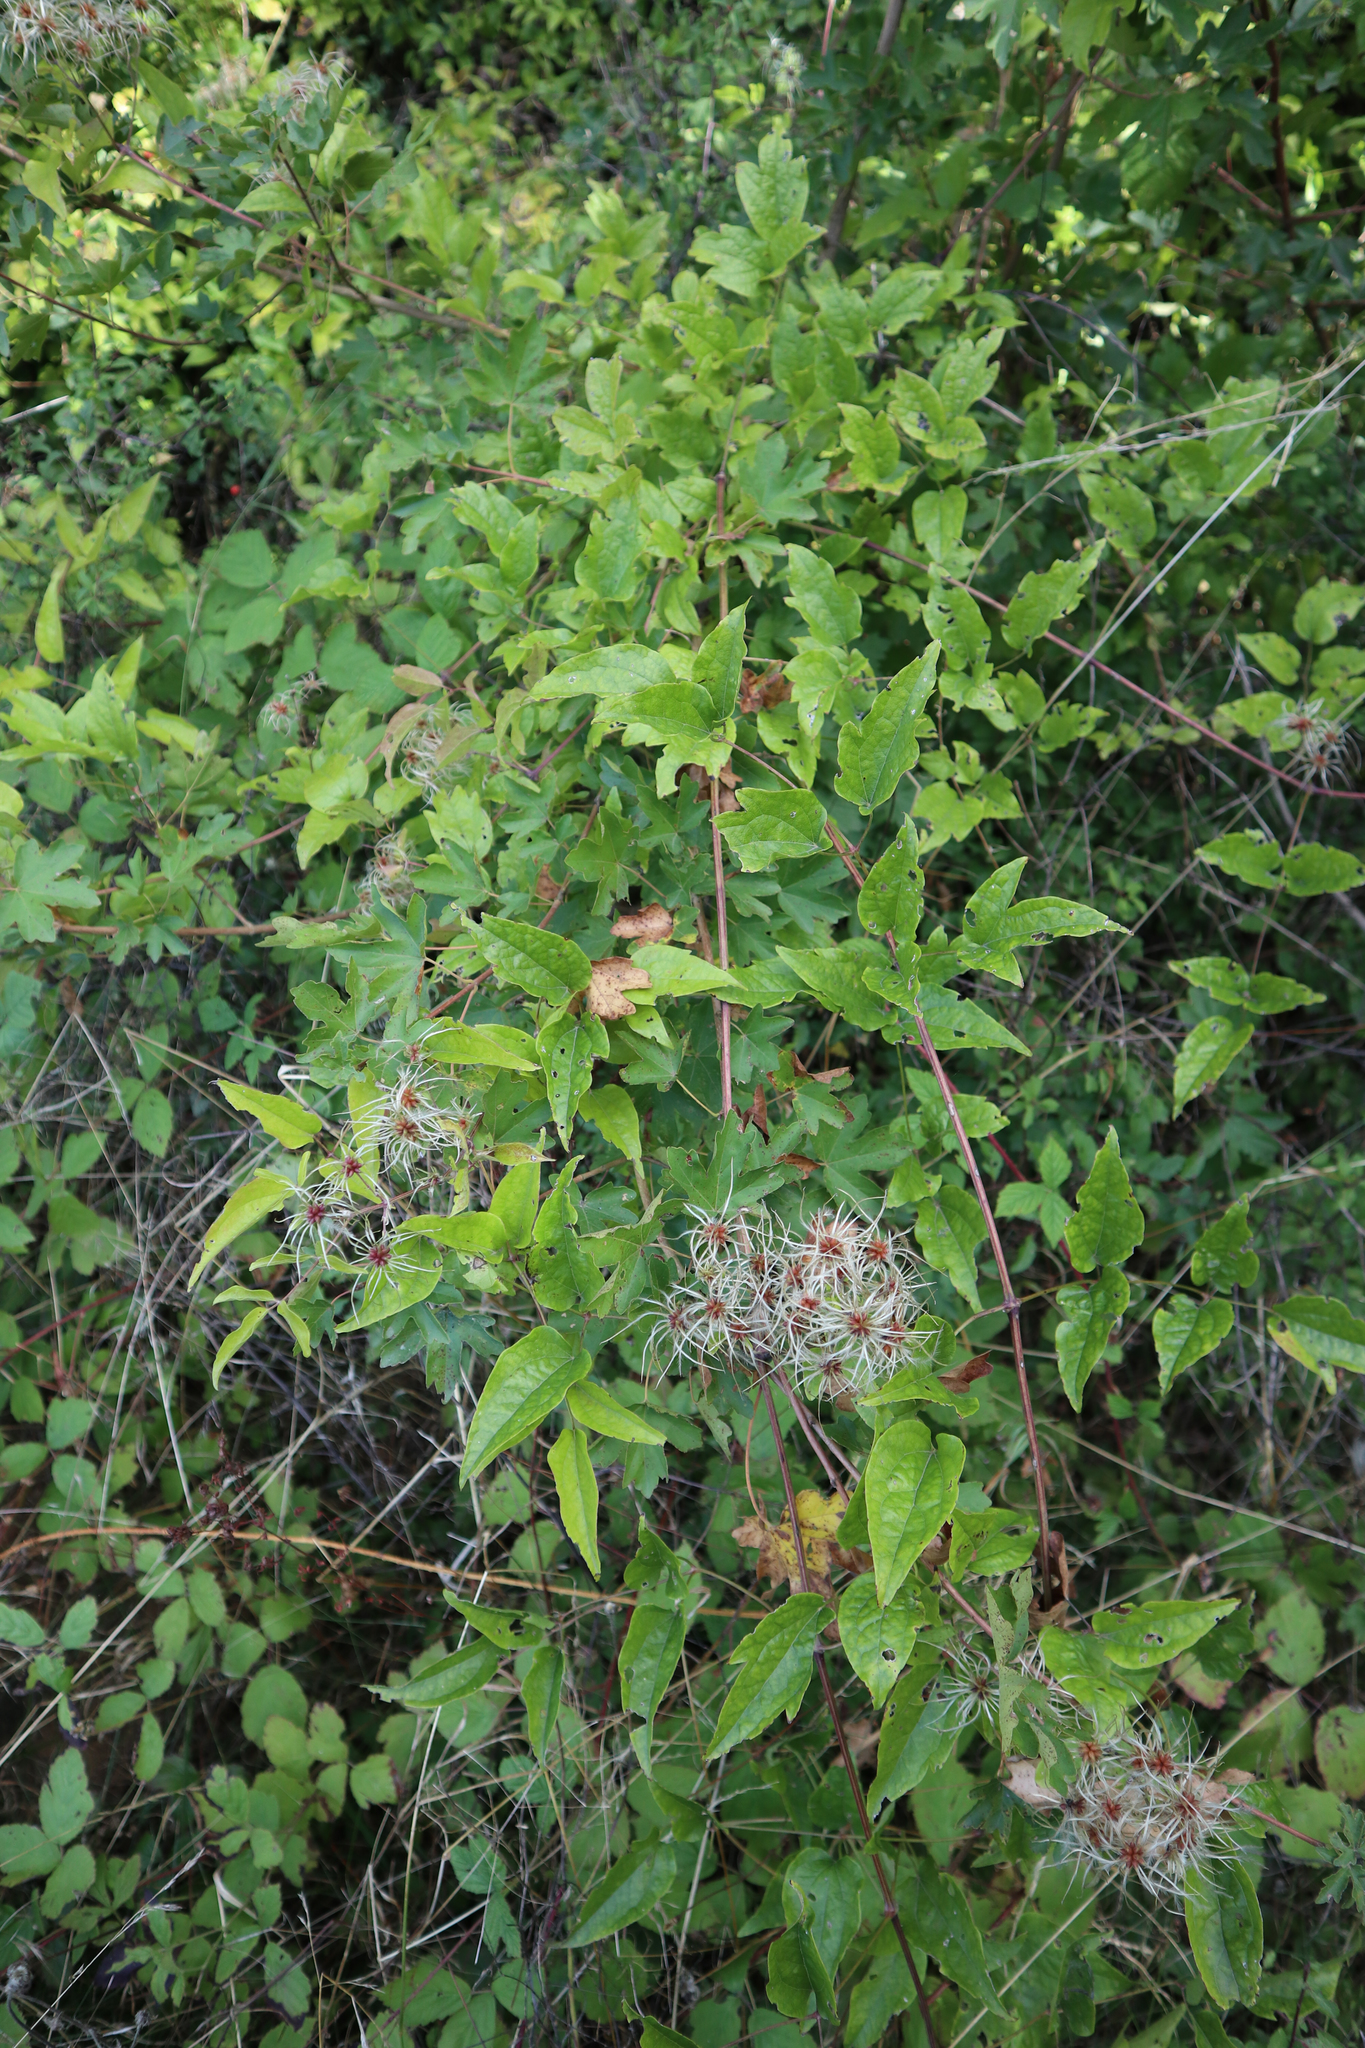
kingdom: Plantae
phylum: Tracheophyta
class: Magnoliopsida
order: Ranunculales
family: Ranunculaceae
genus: Clematis
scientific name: Clematis vitalba
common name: Evergreen clematis
